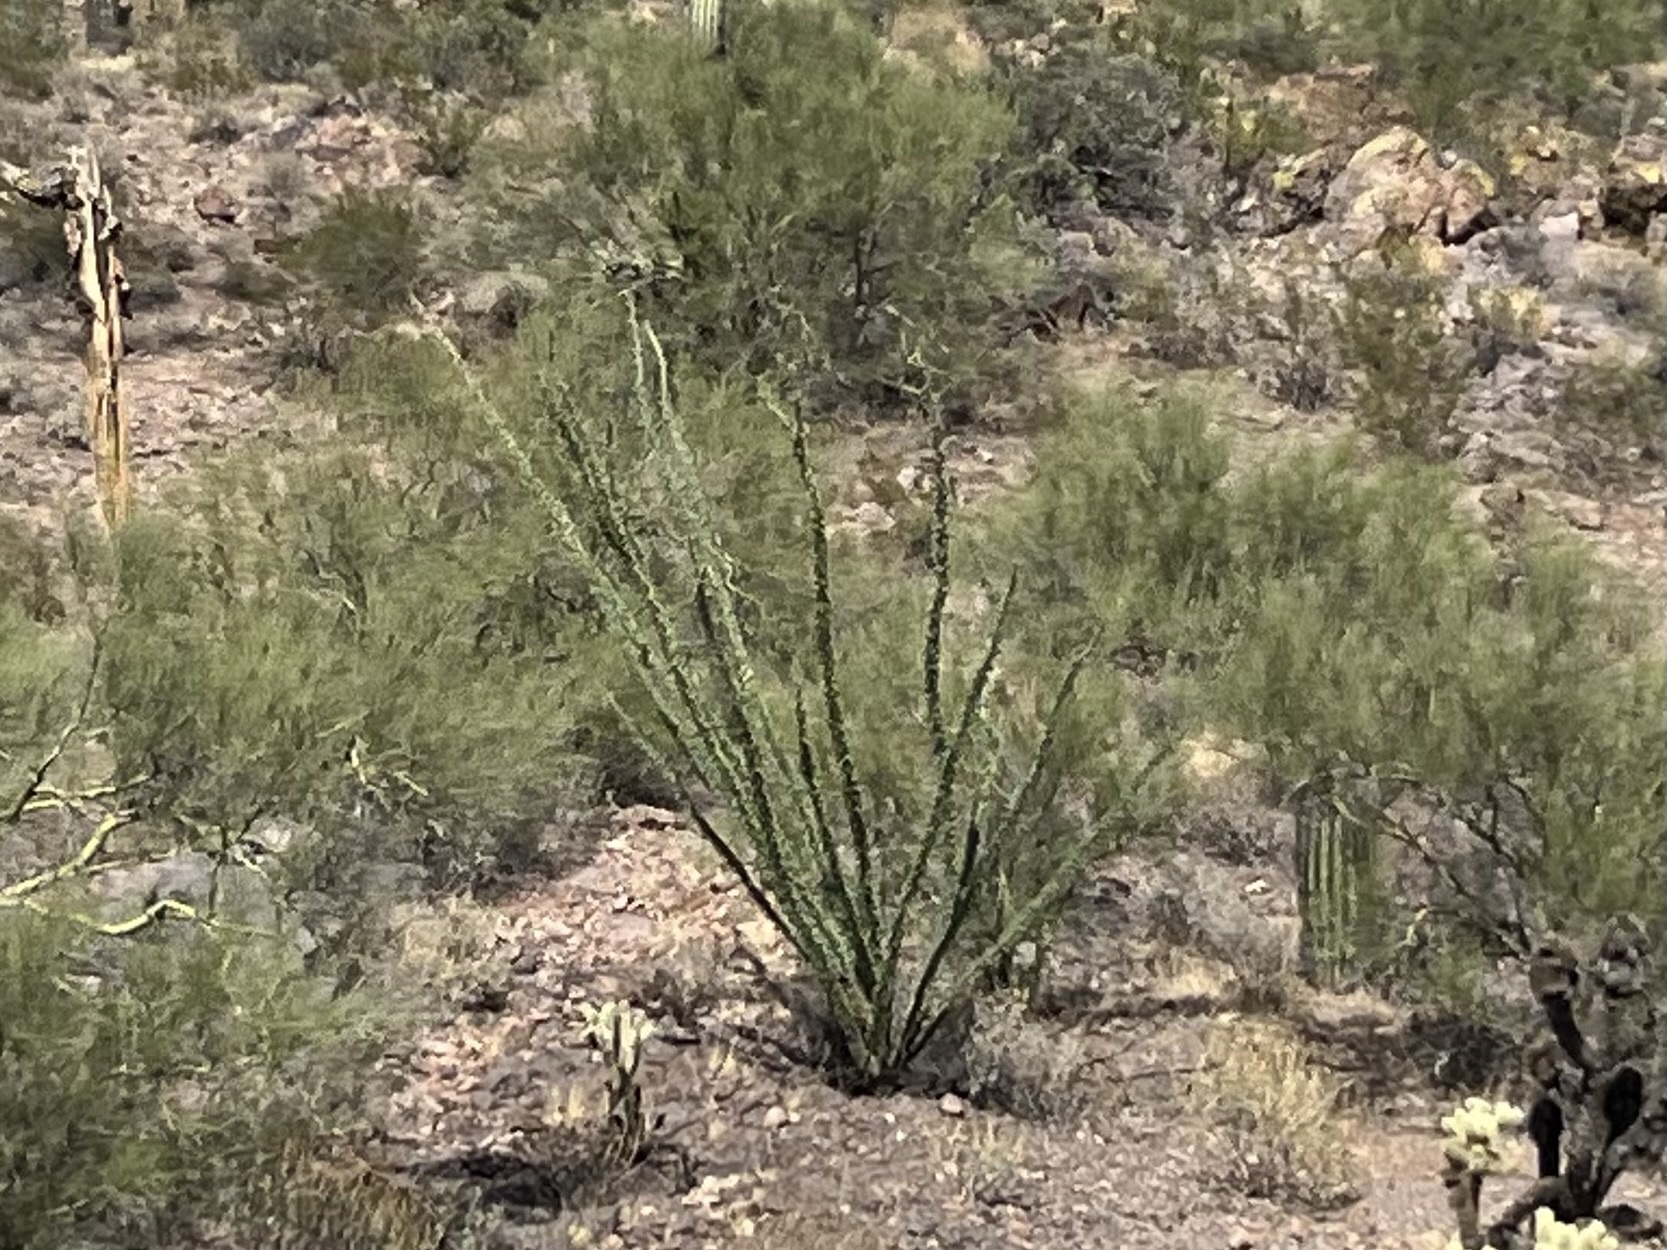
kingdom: Plantae
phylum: Tracheophyta
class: Magnoliopsida
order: Ericales
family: Fouquieriaceae
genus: Fouquieria
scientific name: Fouquieria splendens
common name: Vine-cactus
